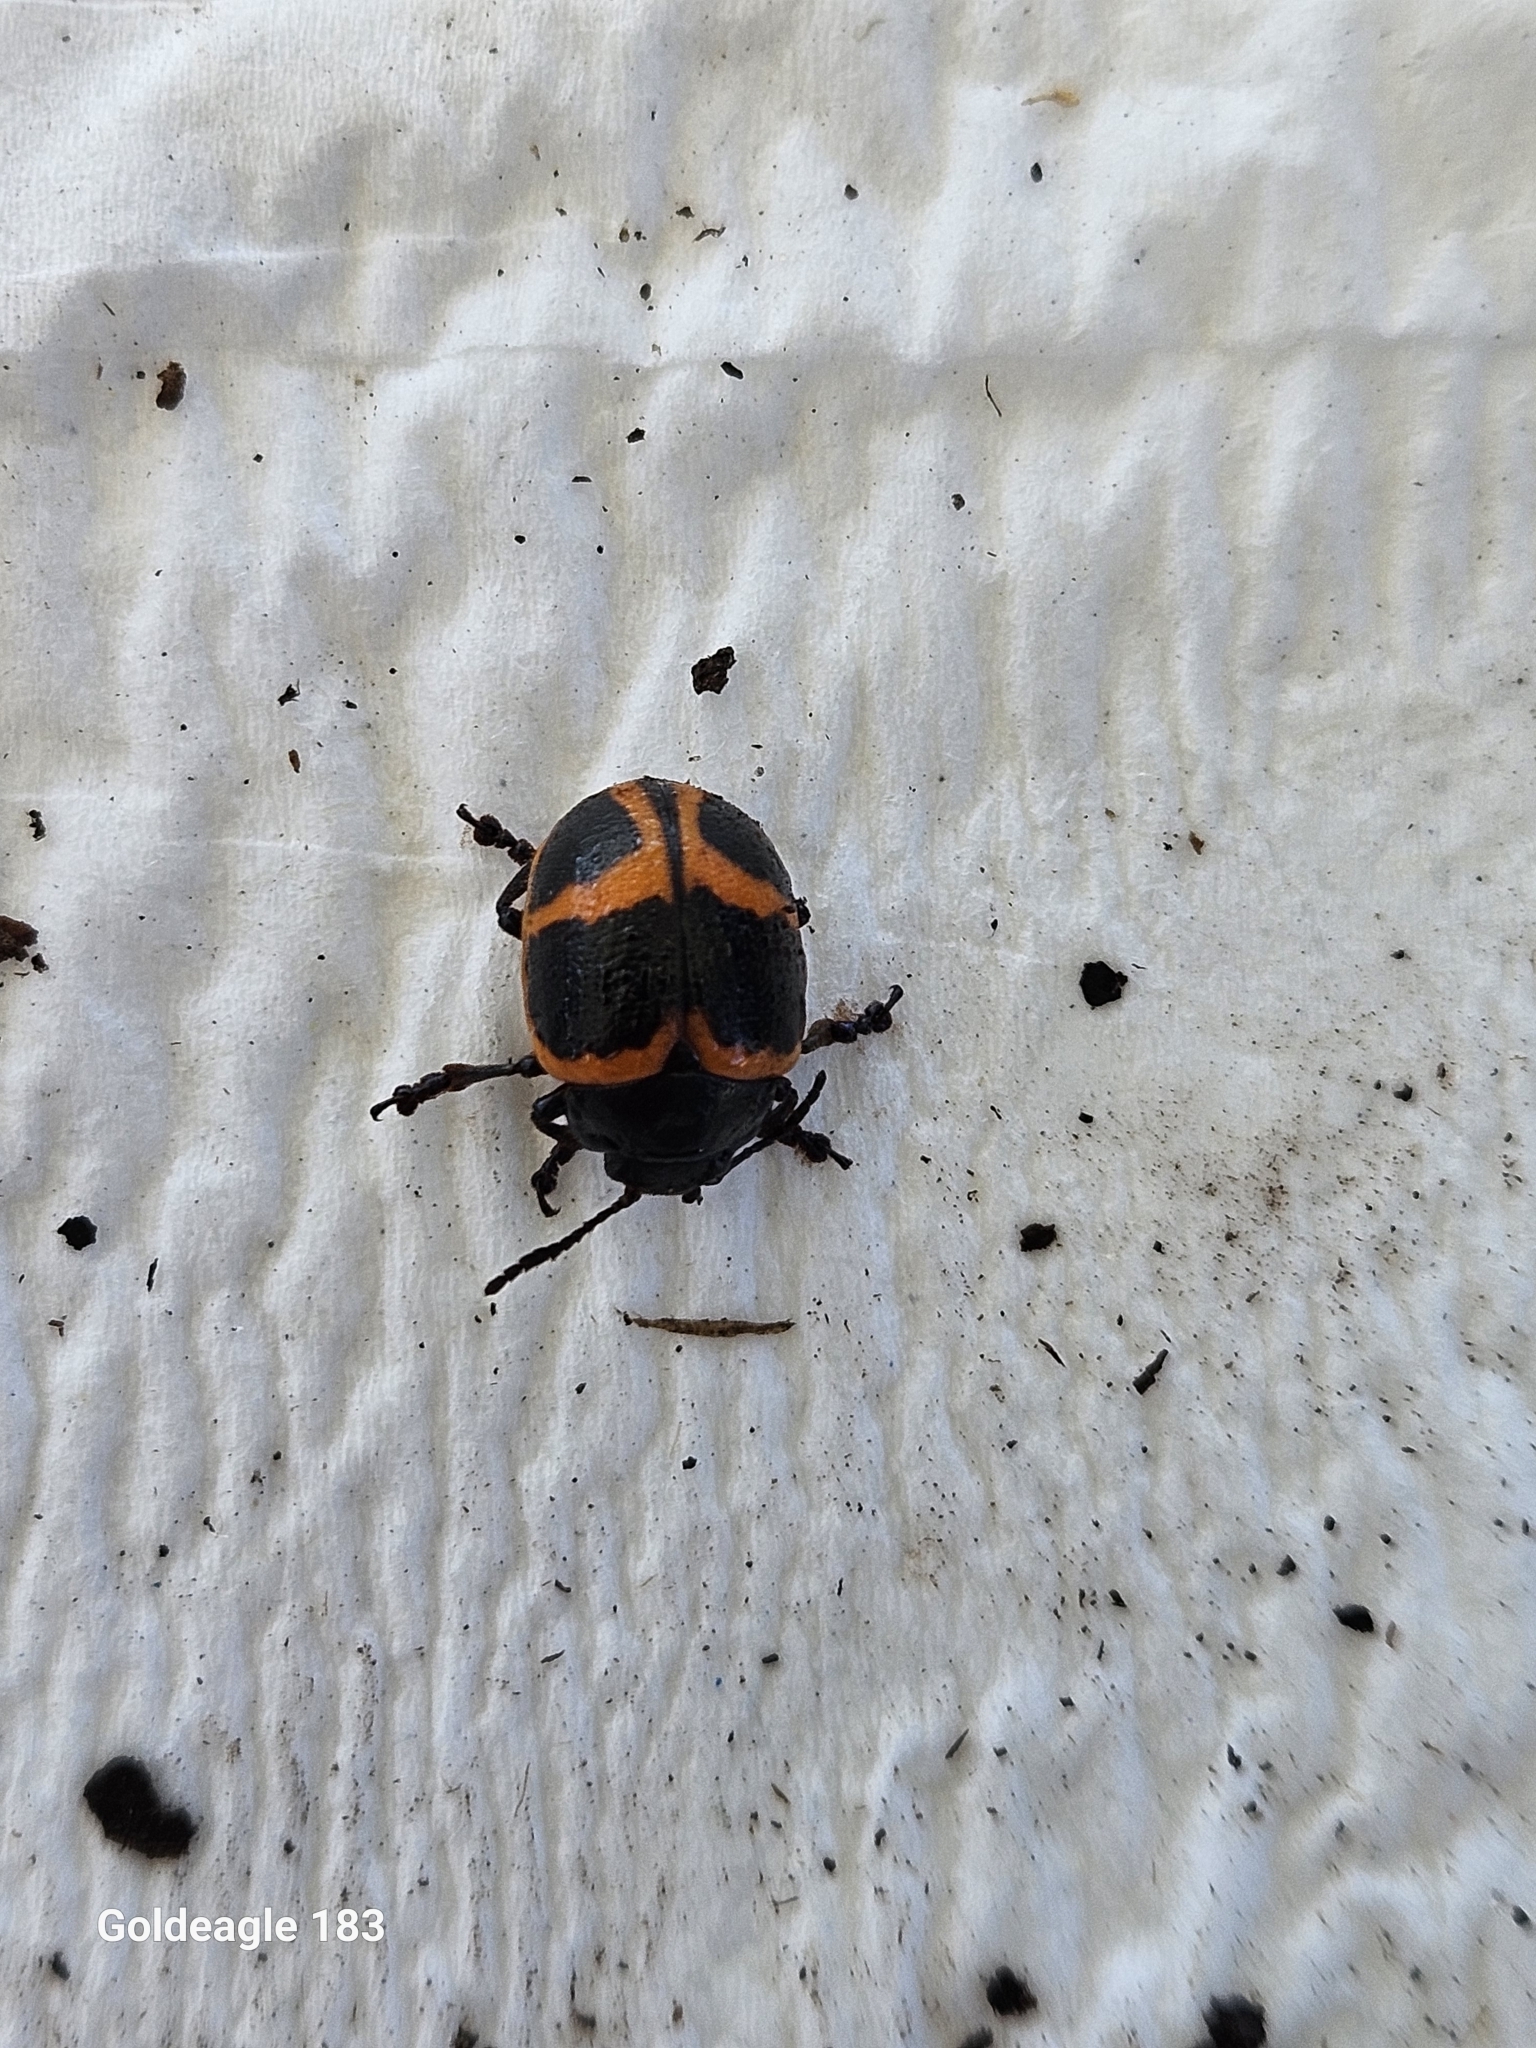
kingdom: Animalia
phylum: Arthropoda
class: Insecta
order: Coleoptera
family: Chrysomelidae
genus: Labidomera
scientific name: Labidomera clivicollis
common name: Swamp milkweed leaf beetle
